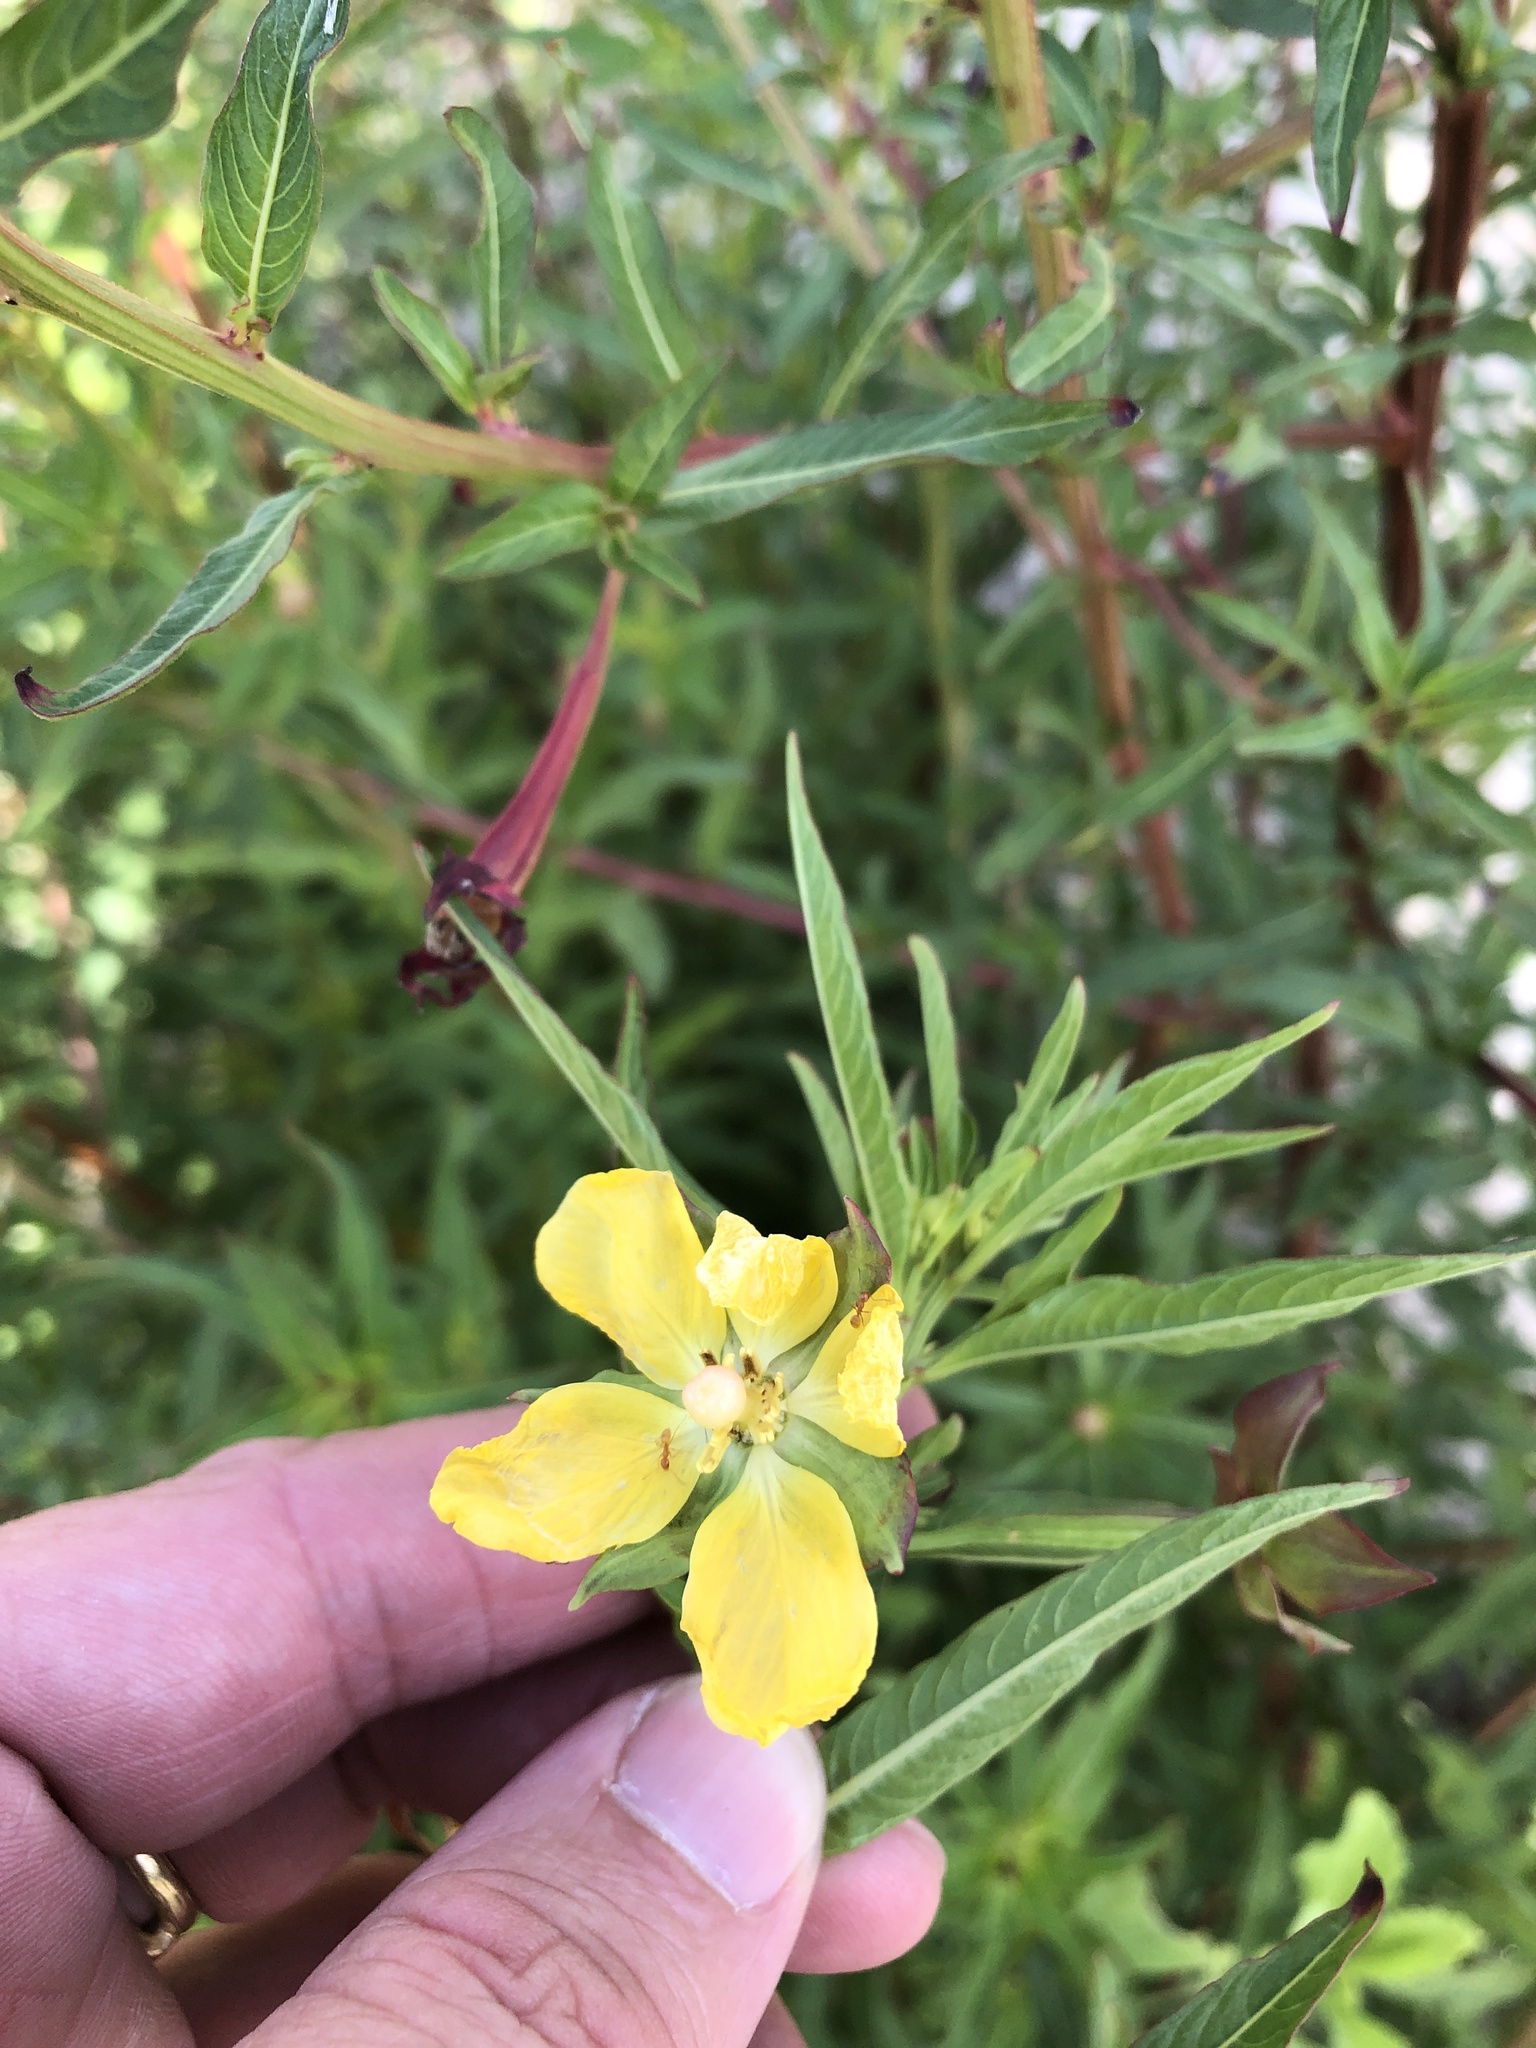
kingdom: Plantae
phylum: Tracheophyta
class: Magnoliopsida
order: Myrtales
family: Onagraceae
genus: Ludwigia
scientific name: Ludwigia octovalvis
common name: Water-primrose
